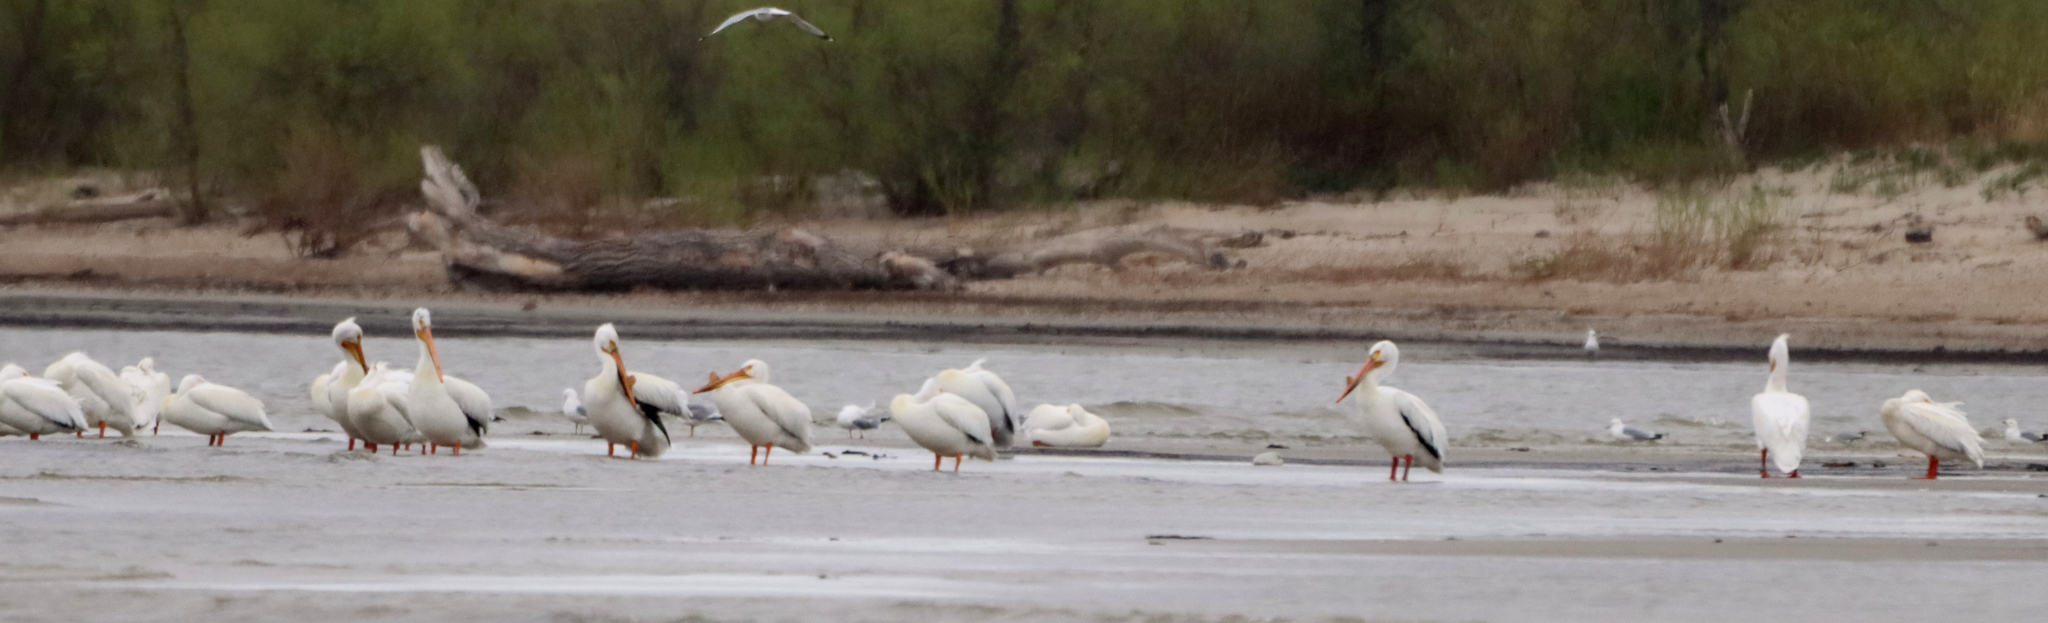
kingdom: Animalia
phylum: Chordata
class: Aves
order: Pelecaniformes
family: Pelecanidae
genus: Pelecanus
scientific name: Pelecanus erythrorhynchos
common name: American white pelican
